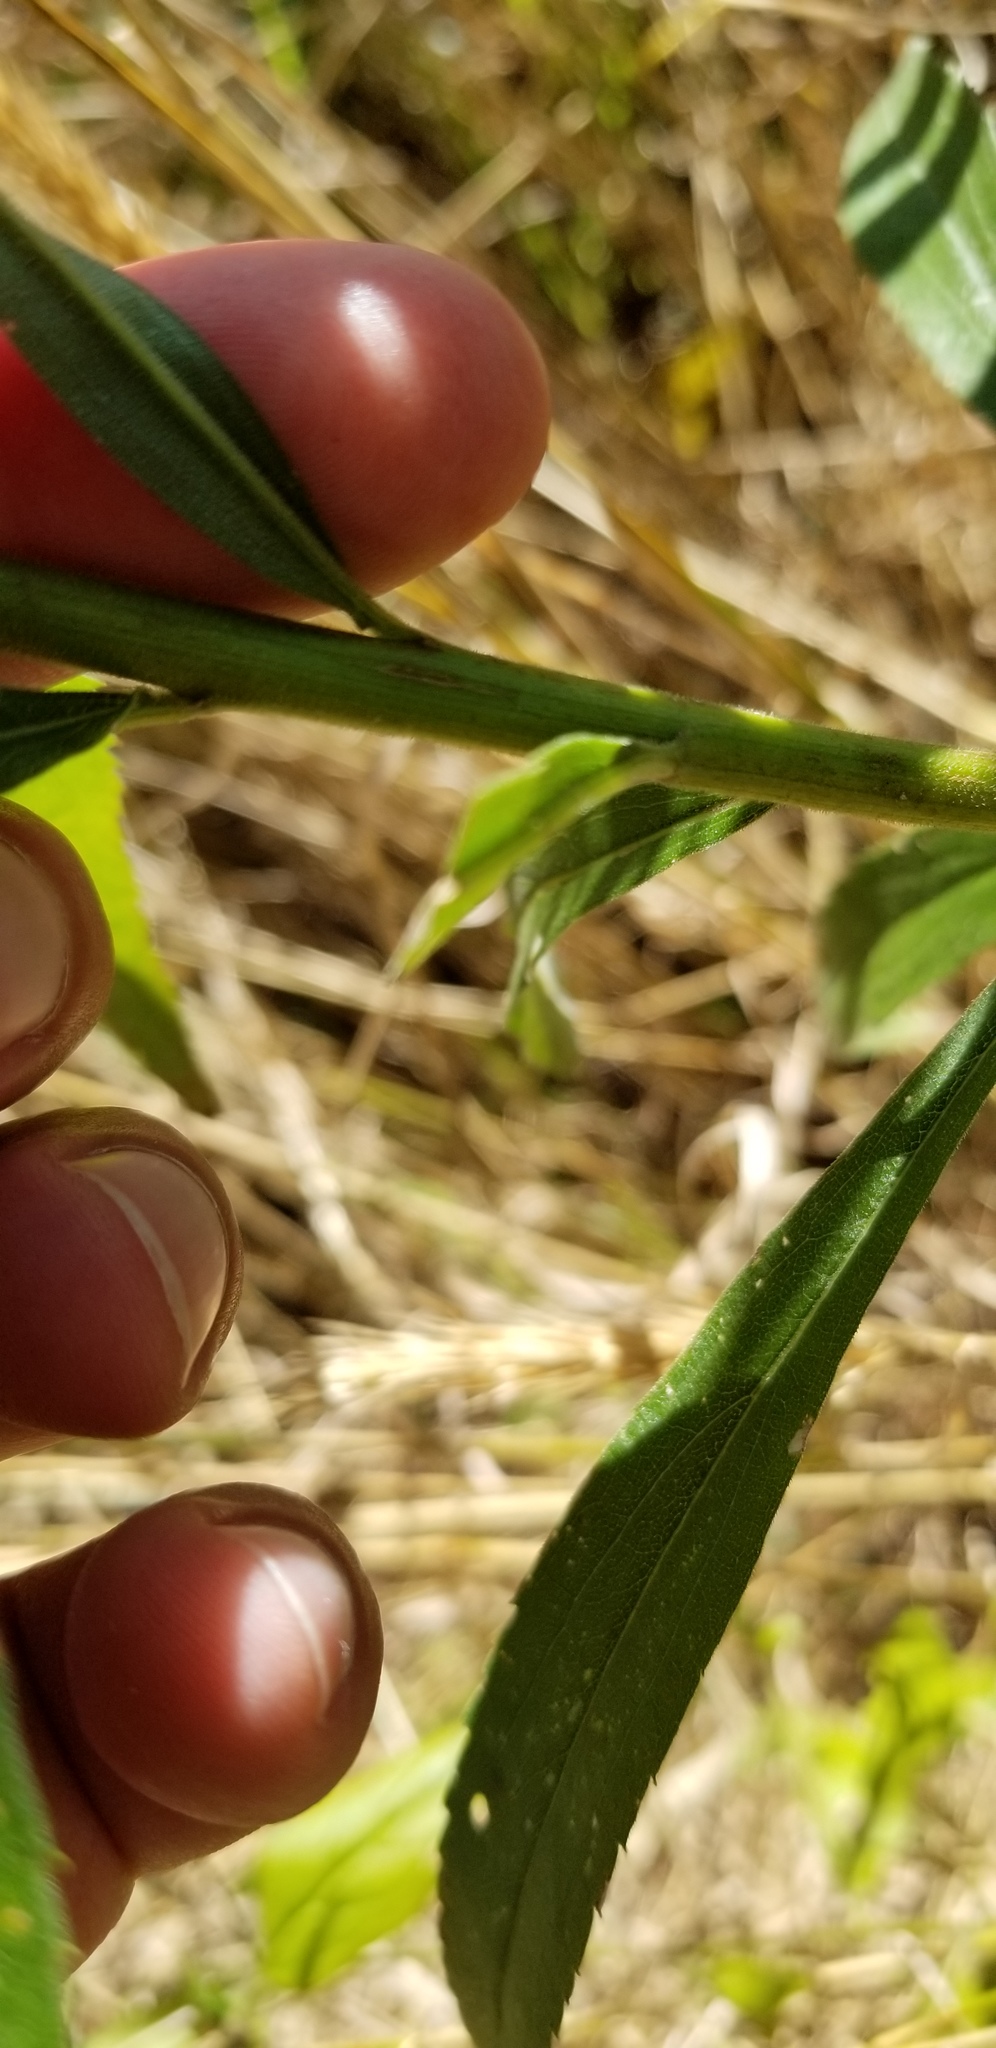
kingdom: Plantae
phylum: Tracheophyta
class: Magnoliopsida
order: Asterales
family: Asteraceae
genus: Solidago
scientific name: Solidago altissima
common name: Late goldenrod
